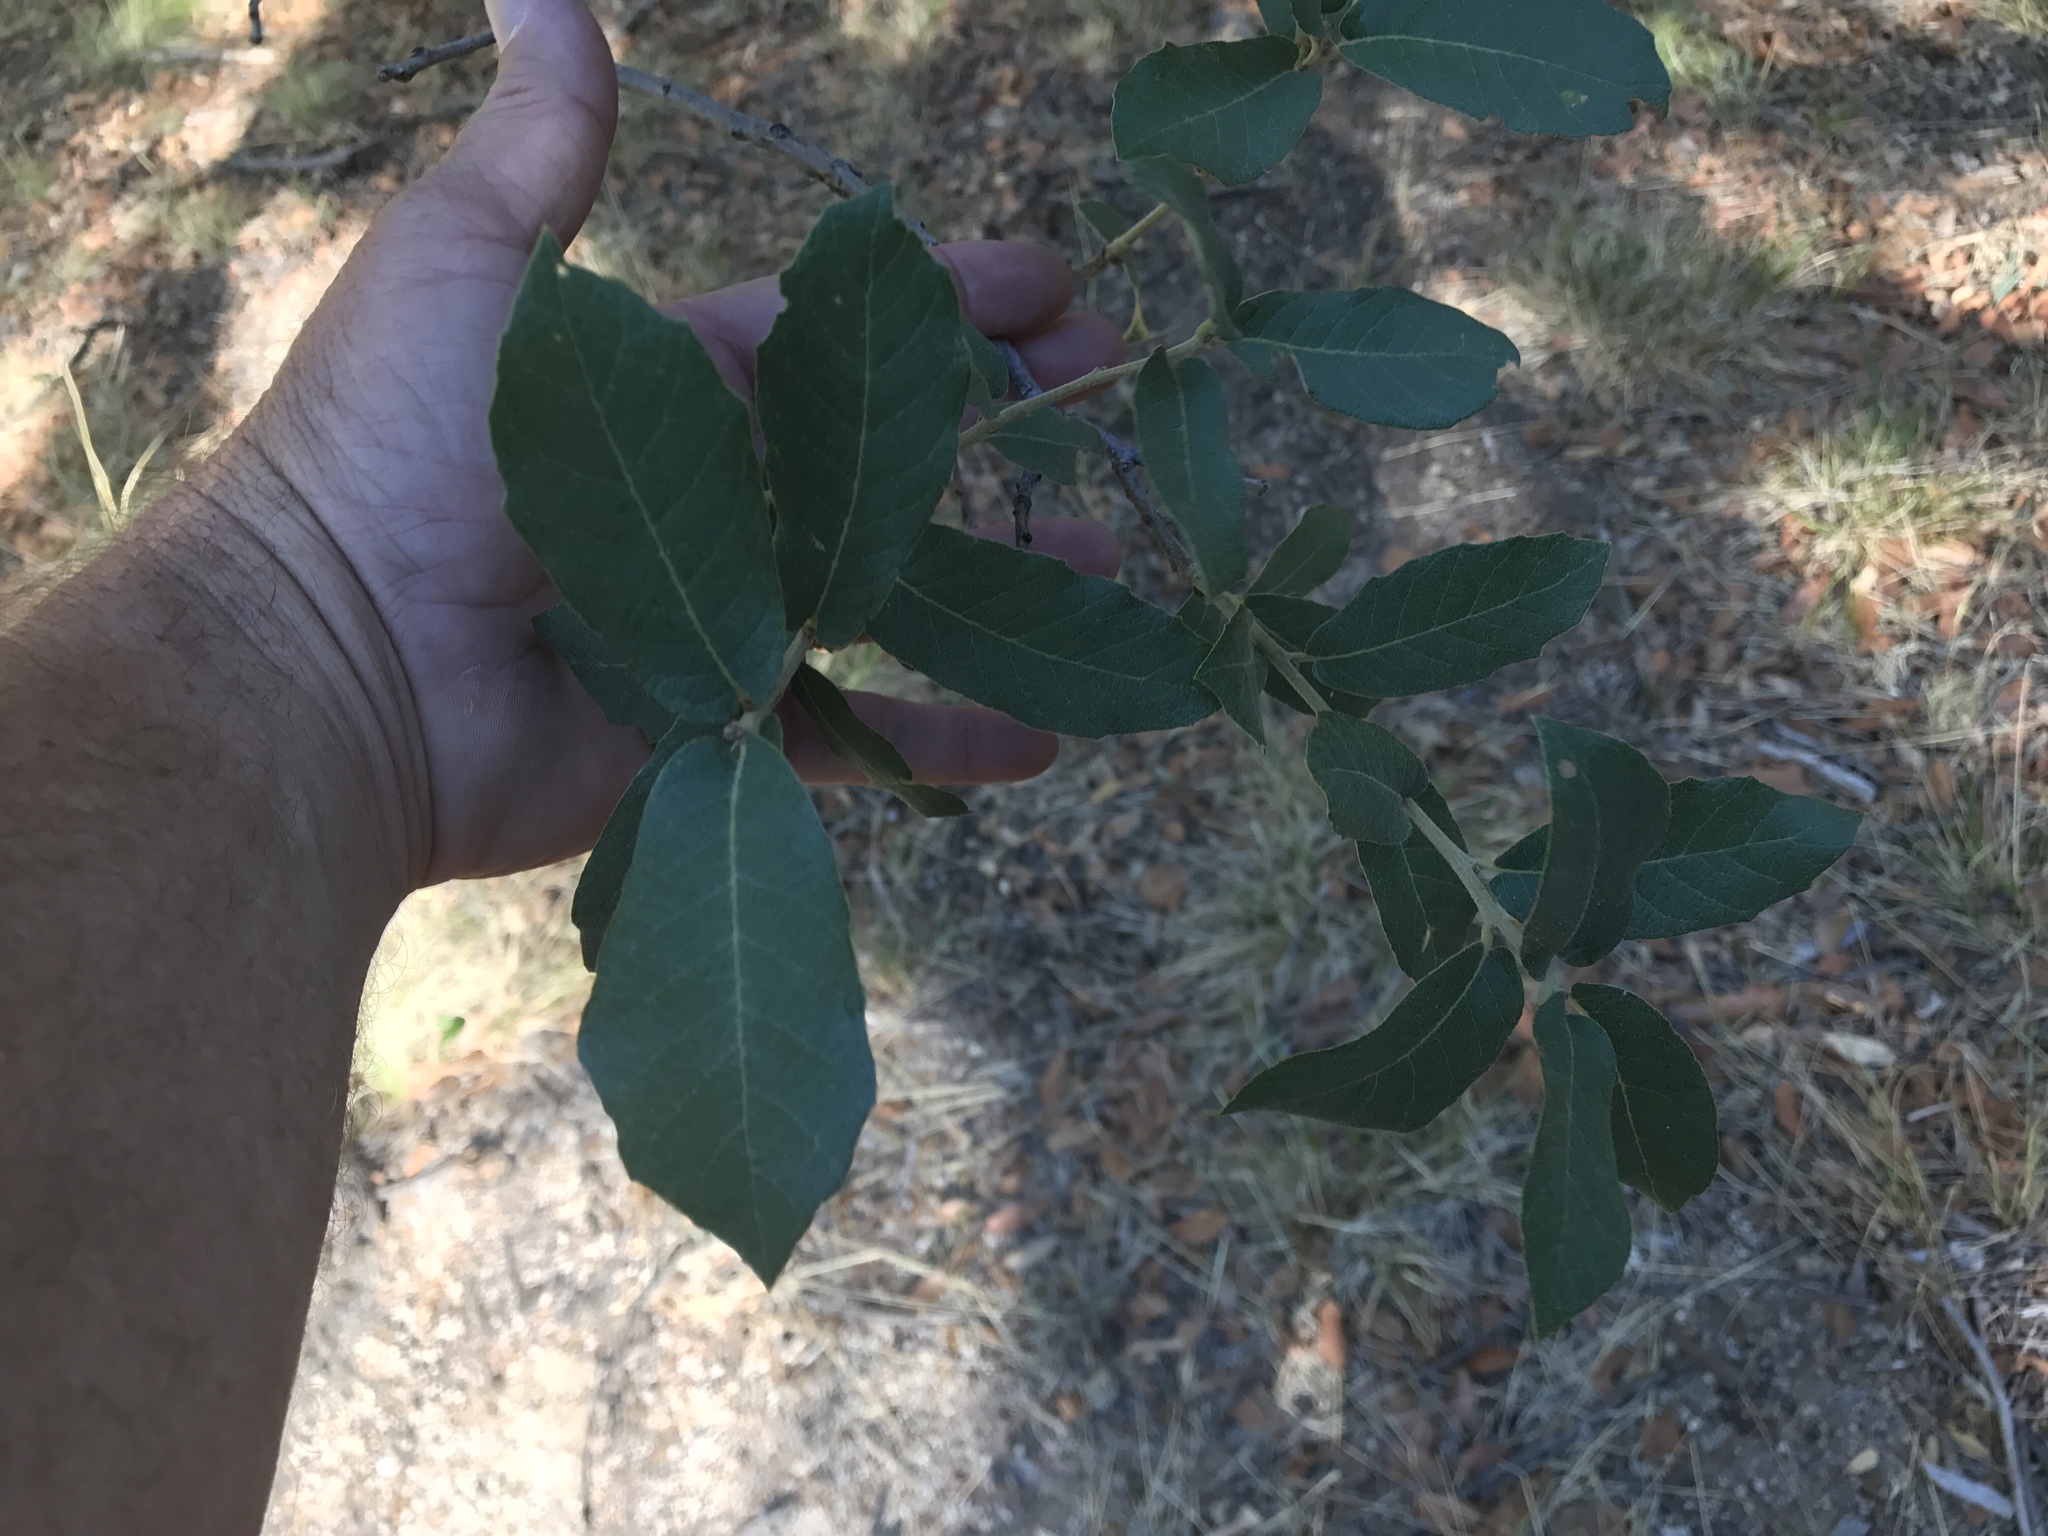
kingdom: Plantae
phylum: Tracheophyta
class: Magnoliopsida
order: Fagales
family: Fagaceae
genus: Quercus
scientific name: Quercus arizonica
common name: Arizona white oak
